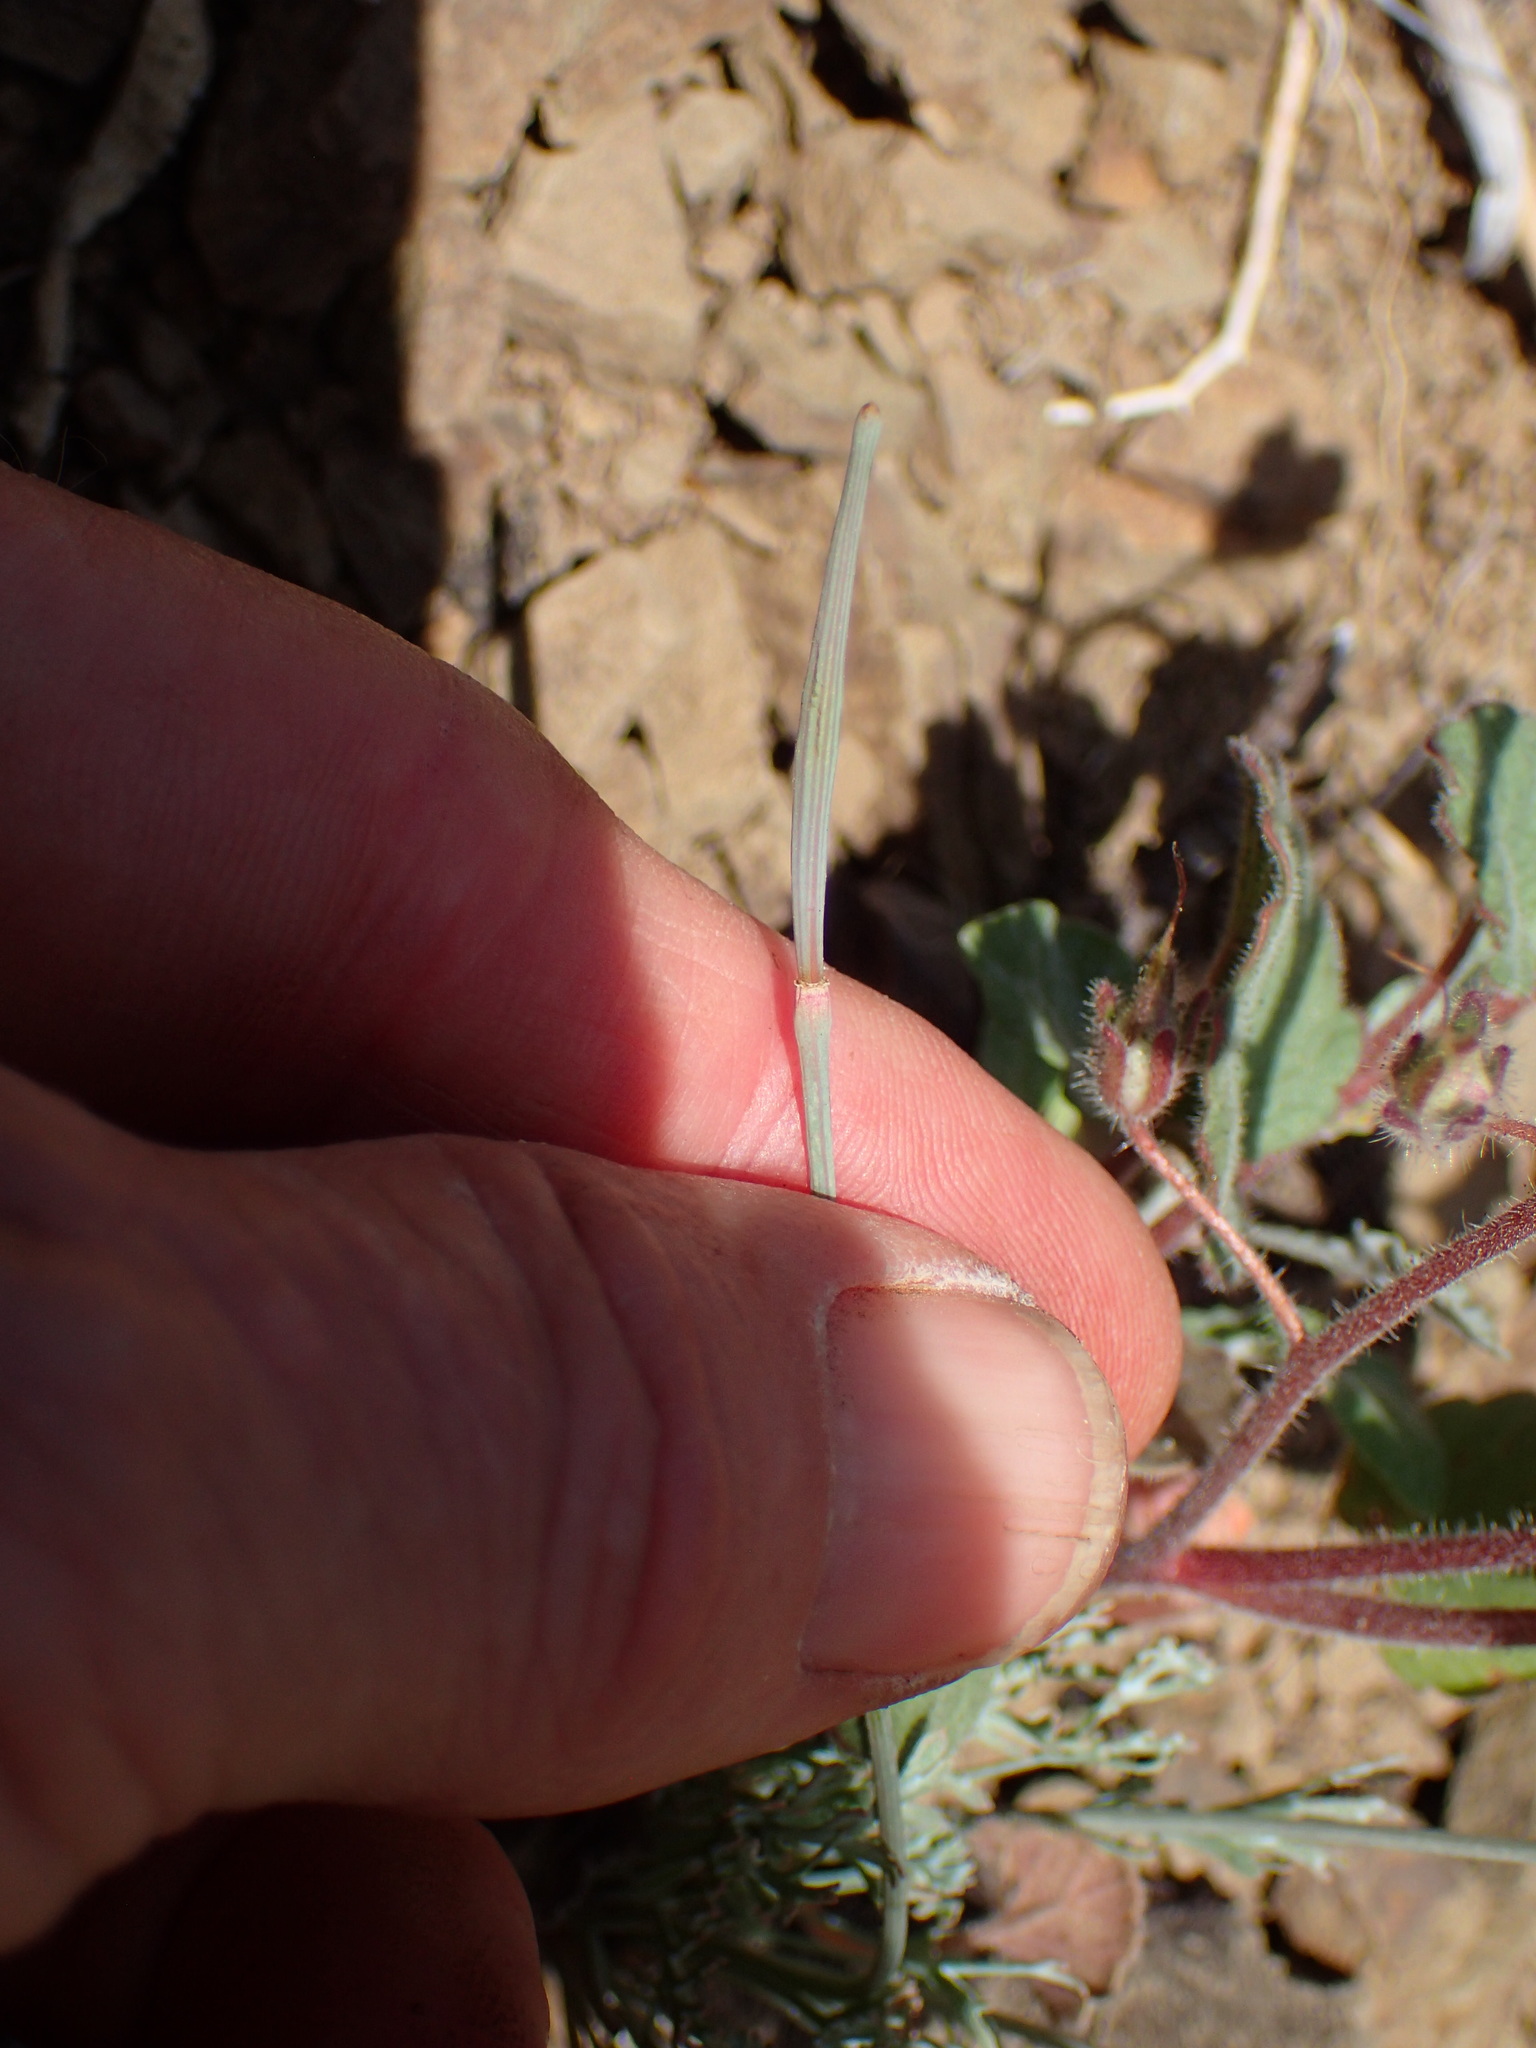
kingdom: Plantae
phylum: Tracheophyta
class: Magnoliopsida
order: Ranunculales
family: Papaveraceae
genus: Eschscholzia
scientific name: Eschscholzia caespitosa
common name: Tufted california-poppy
